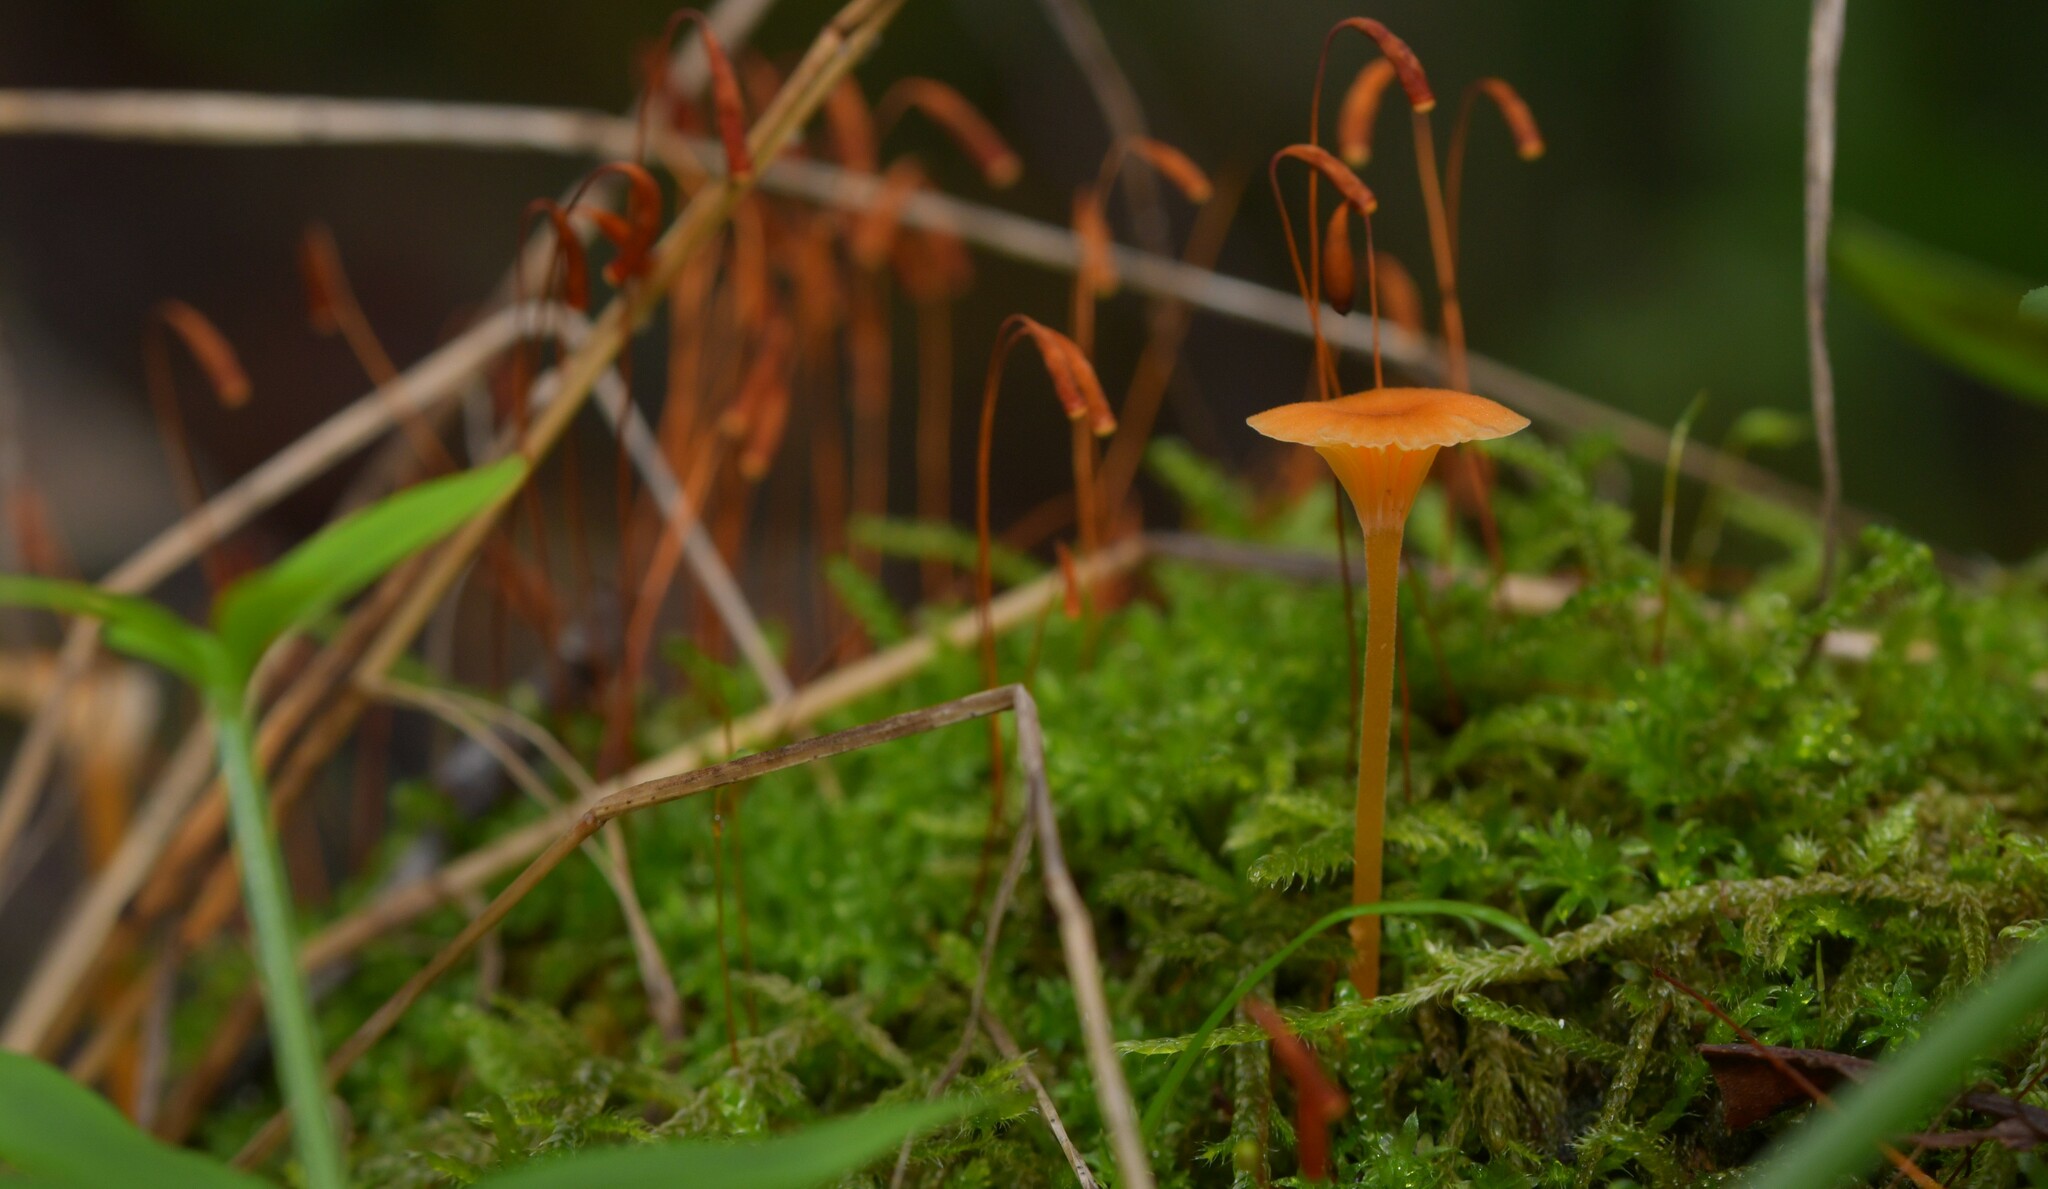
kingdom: Fungi
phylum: Basidiomycota
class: Agaricomycetes
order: Hymenochaetales
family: Rickenellaceae
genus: Rickenella
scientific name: Rickenella fibula
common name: Orange mosscap
